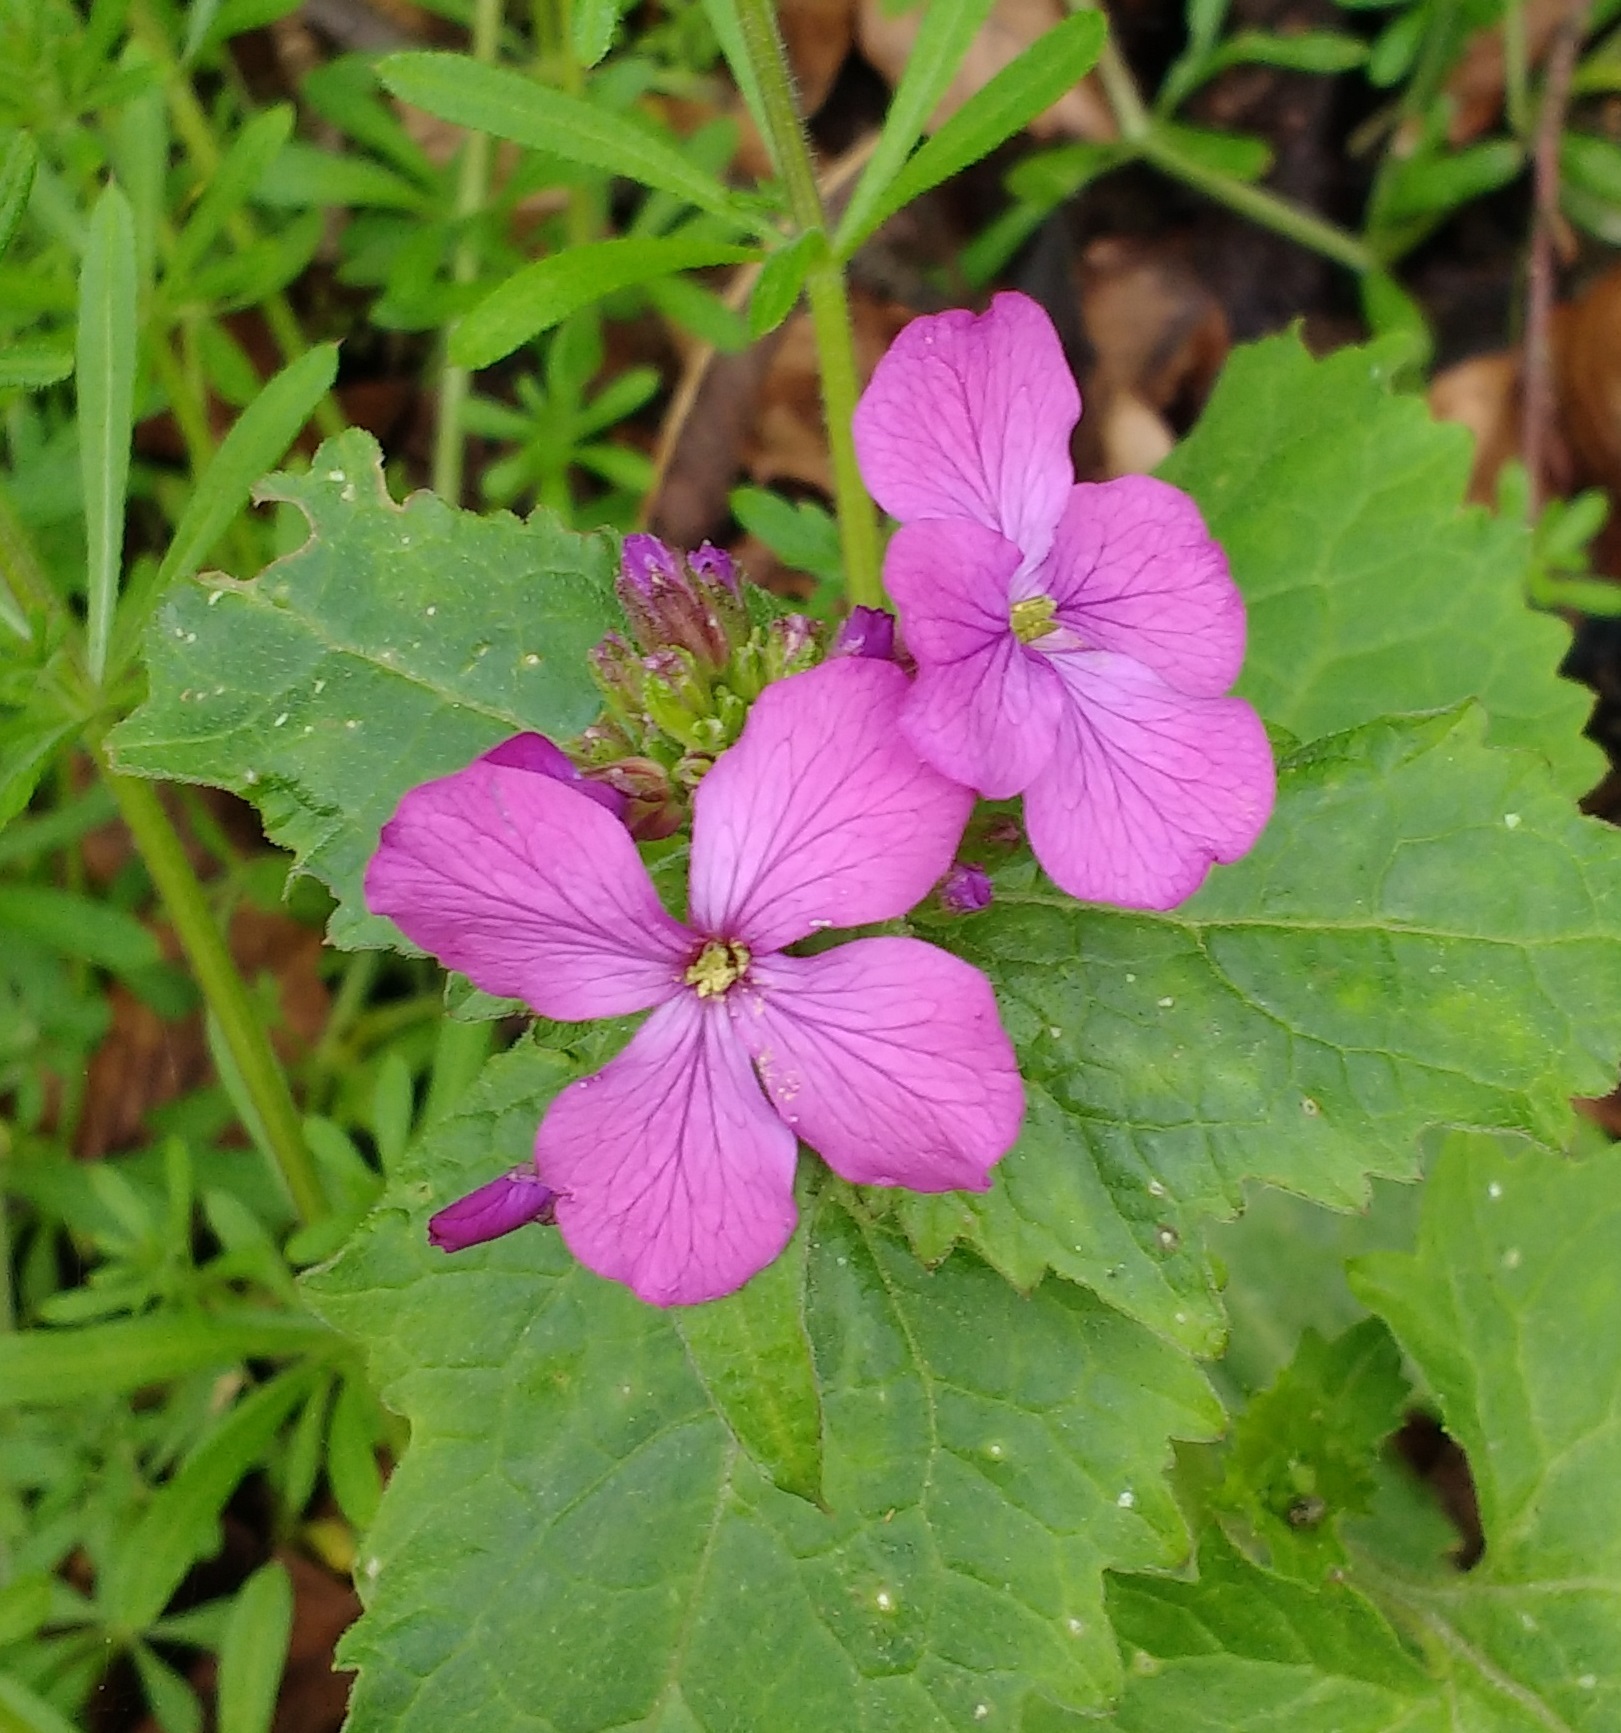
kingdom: Plantae
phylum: Tracheophyta
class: Magnoliopsida
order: Brassicales
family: Brassicaceae
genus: Lunaria
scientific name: Lunaria annua
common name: Honesty
